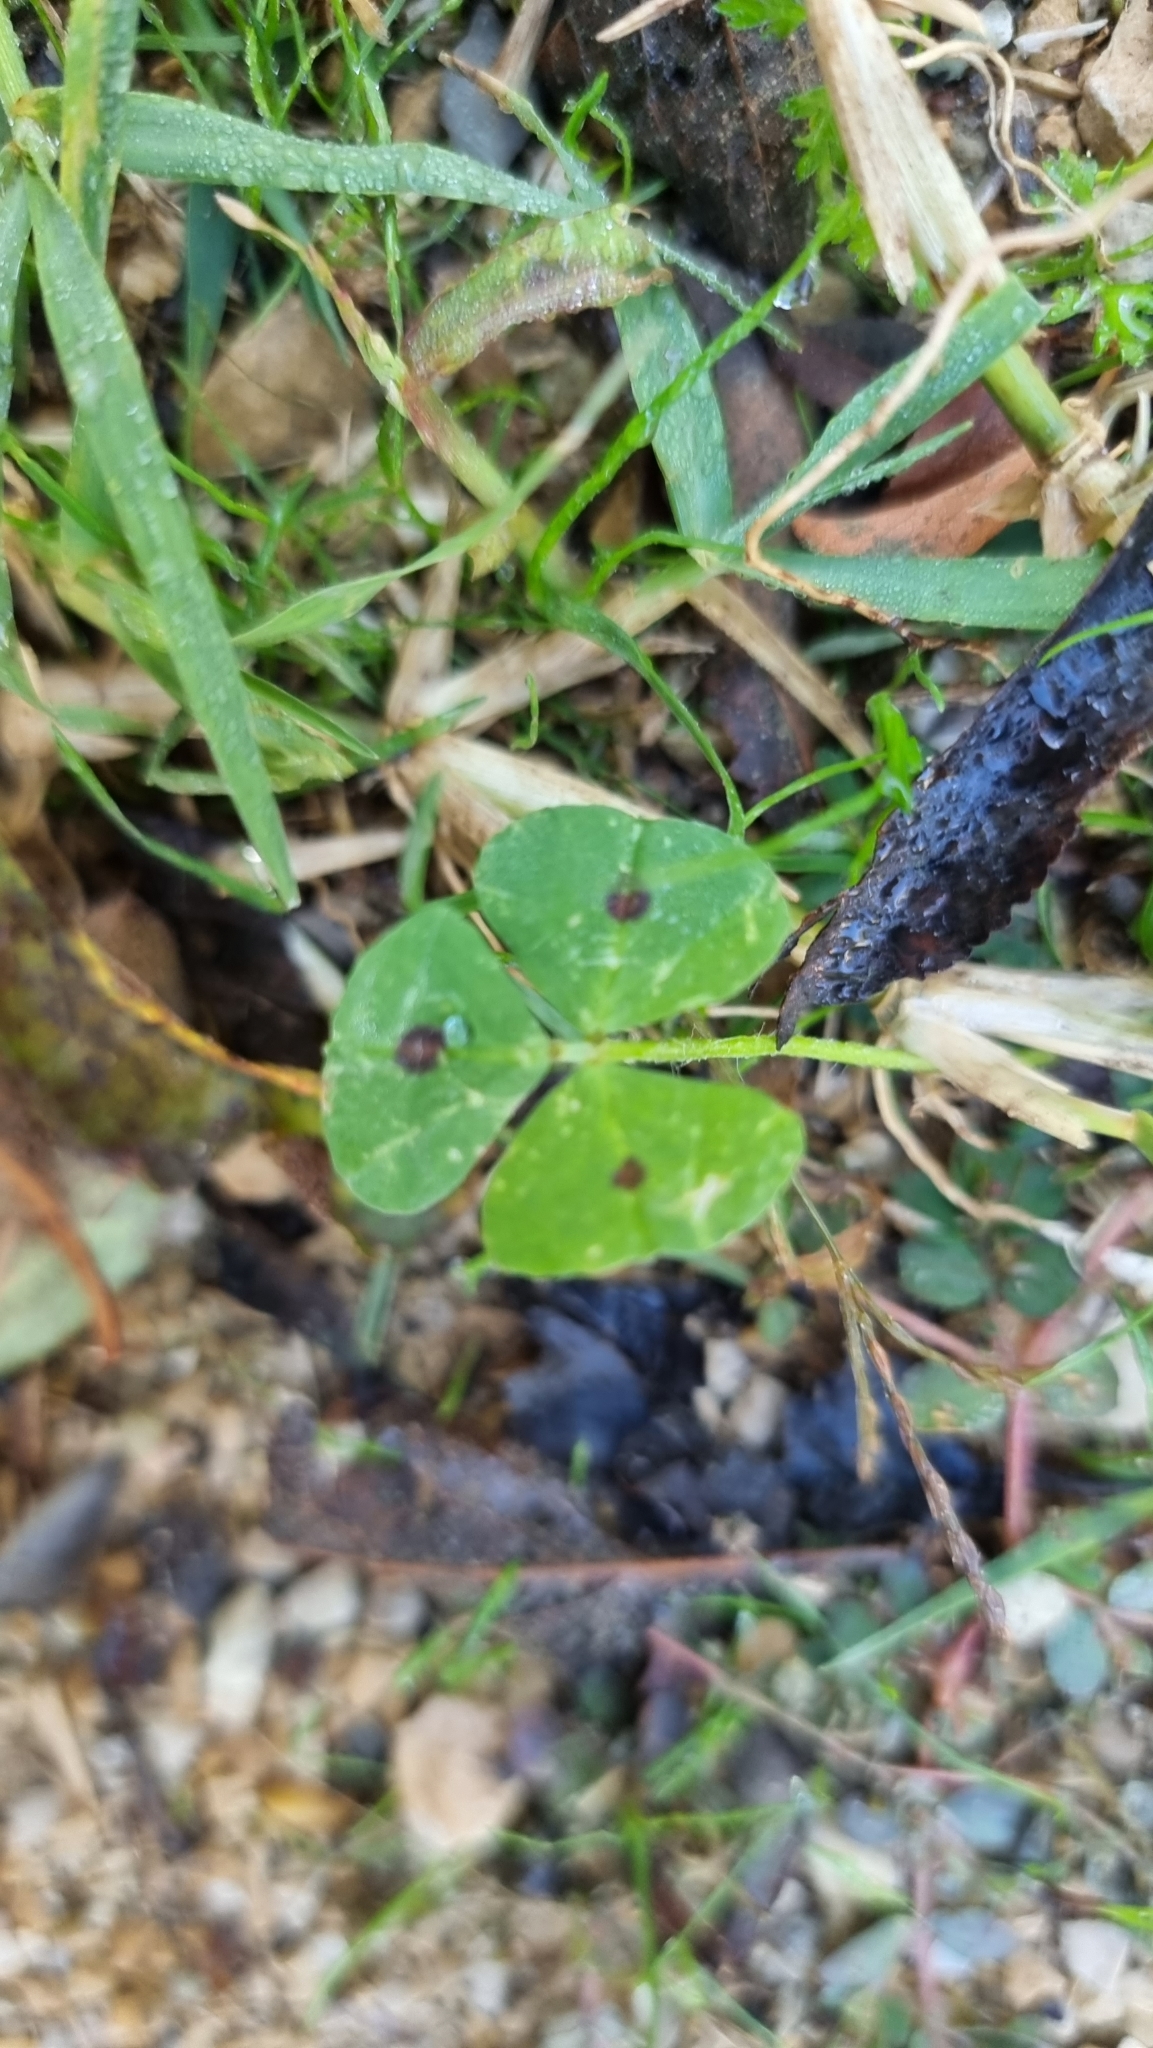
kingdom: Plantae
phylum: Tracheophyta
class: Magnoliopsida
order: Fabales
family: Fabaceae
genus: Medicago
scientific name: Medicago arabica
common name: Spotted medick
